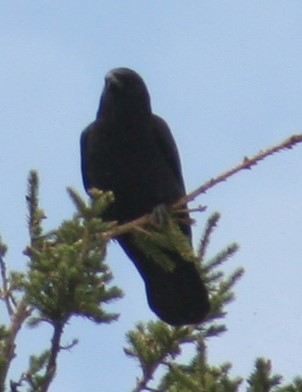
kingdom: Animalia
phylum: Chordata
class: Aves
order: Passeriformes
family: Corvidae
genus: Corvus
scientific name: Corvus brachyrhynchos
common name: American crow
